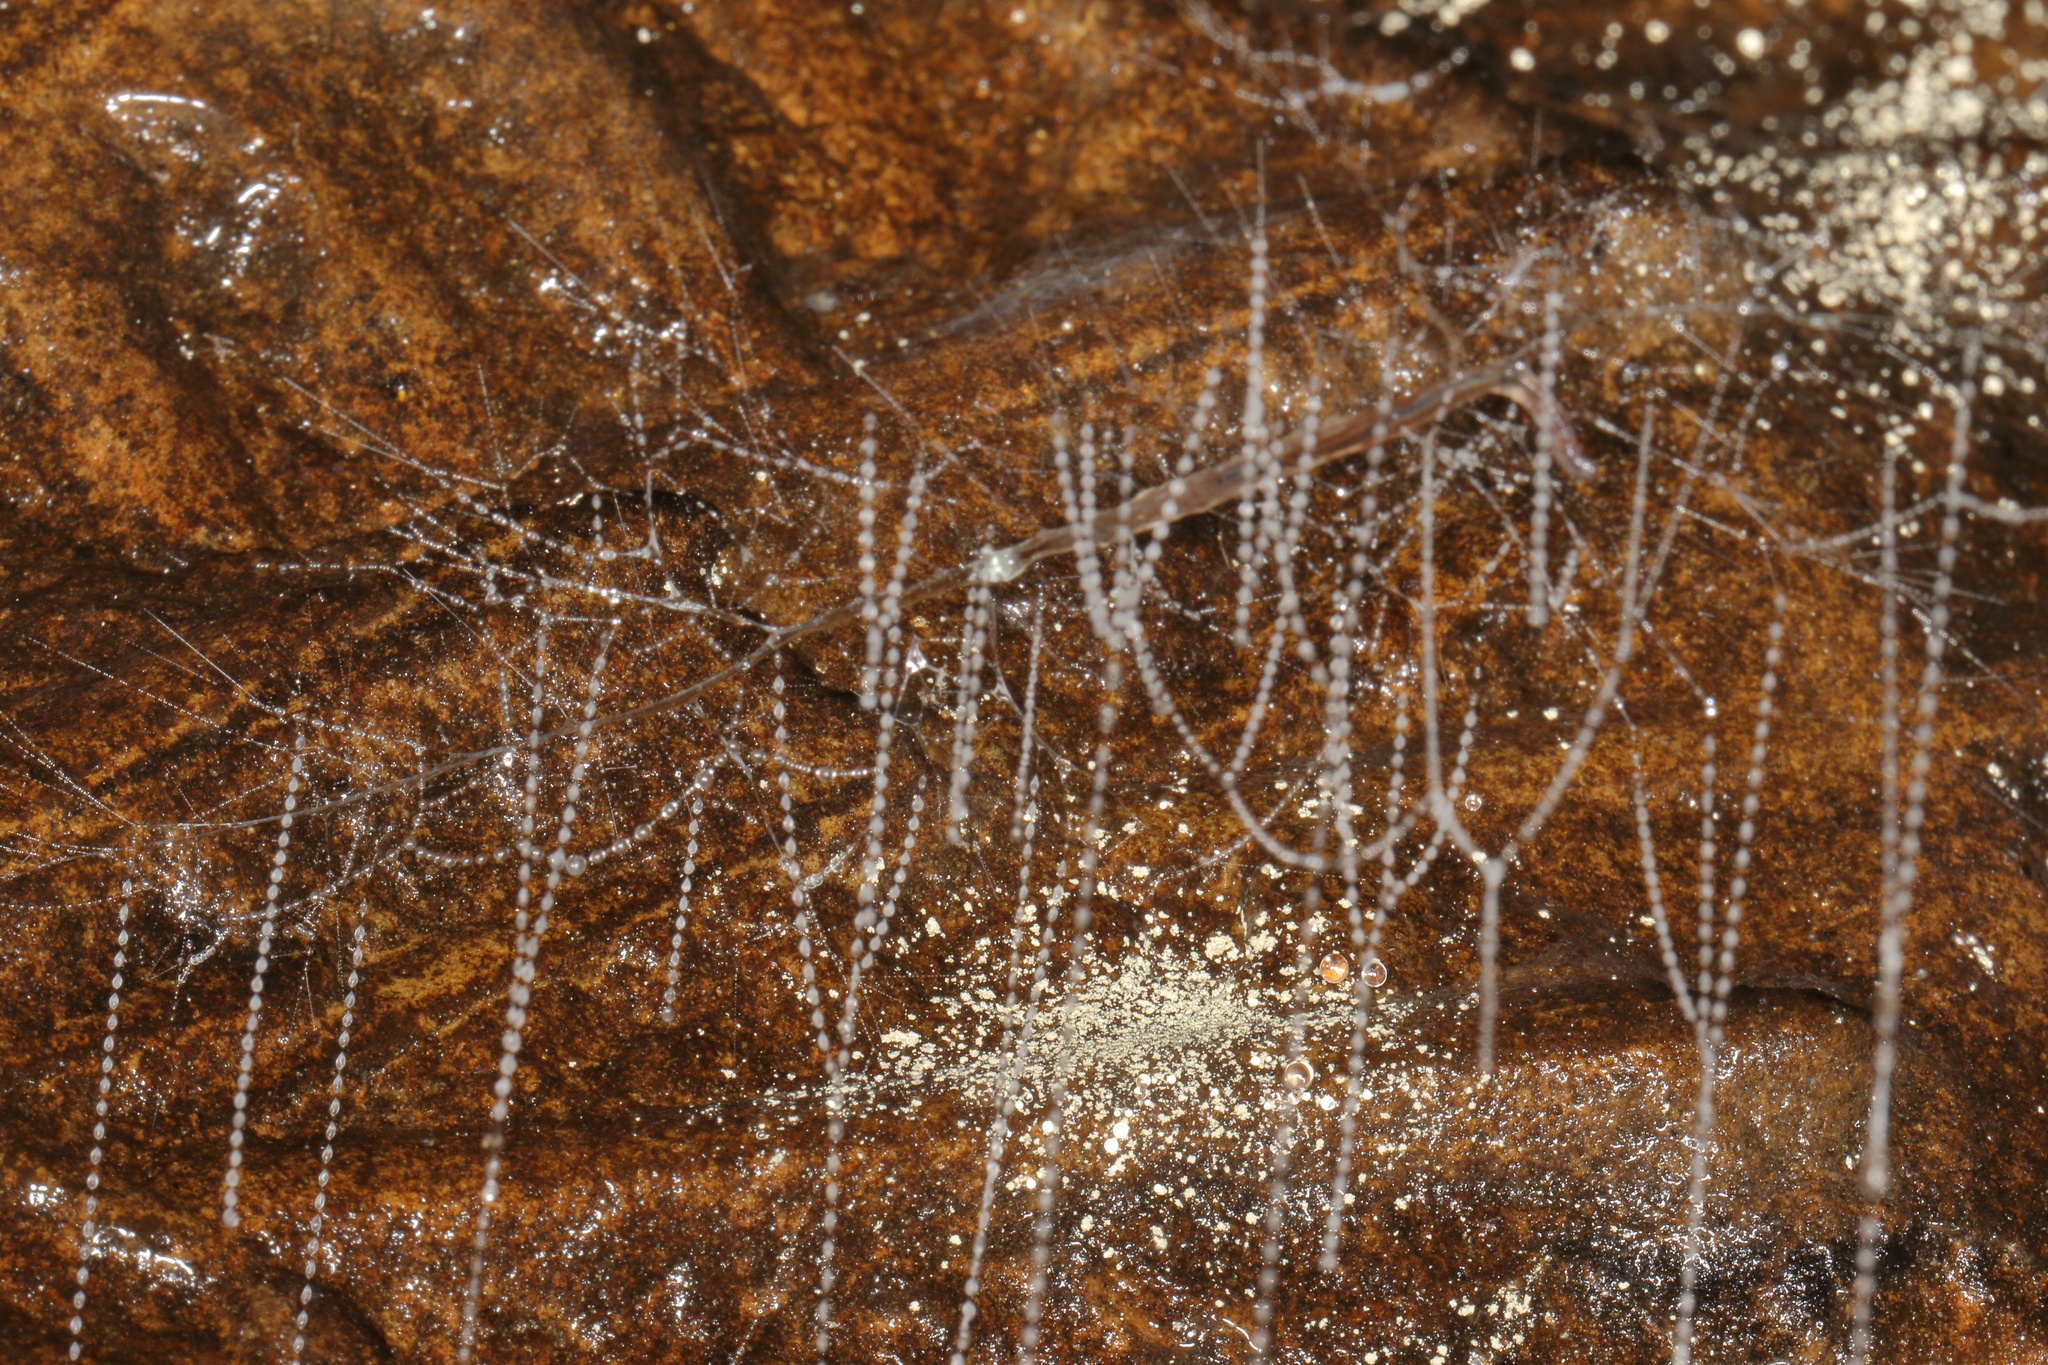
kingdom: Animalia
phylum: Arthropoda
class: Insecta
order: Diptera
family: Keroplatidae
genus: Arachnocampa
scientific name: Arachnocampa luminosa
